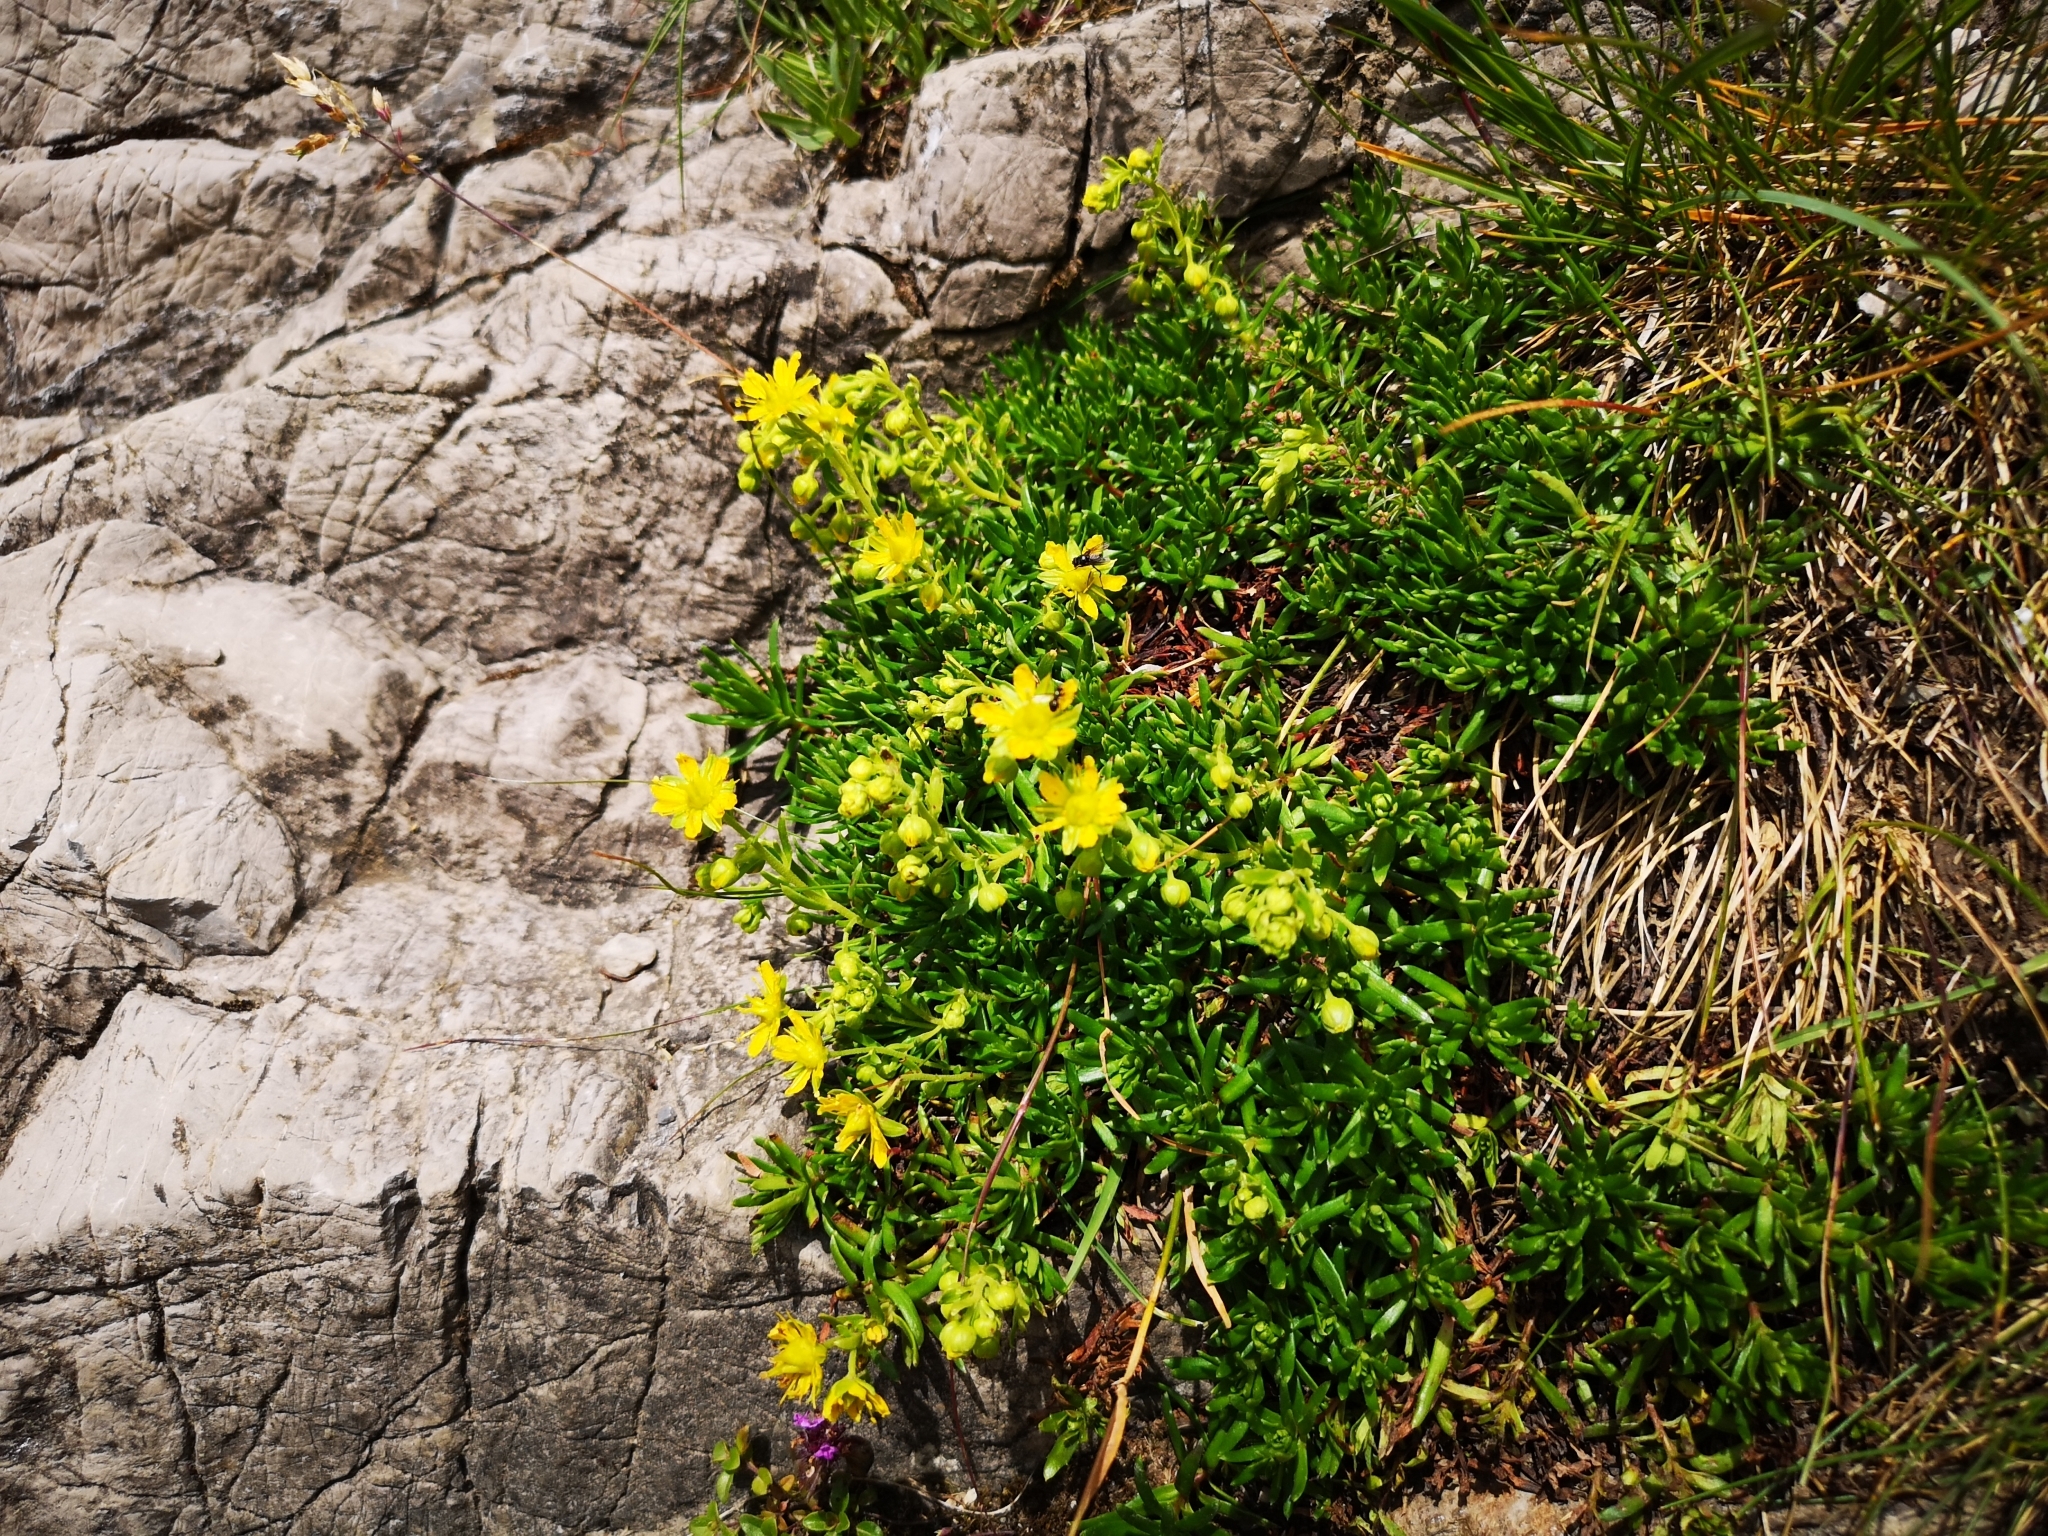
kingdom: Plantae
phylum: Tracheophyta
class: Magnoliopsida
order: Saxifragales
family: Saxifragaceae
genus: Saxifraga
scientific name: Saxifraga aizoides
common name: Yellow mountain saxifrage
